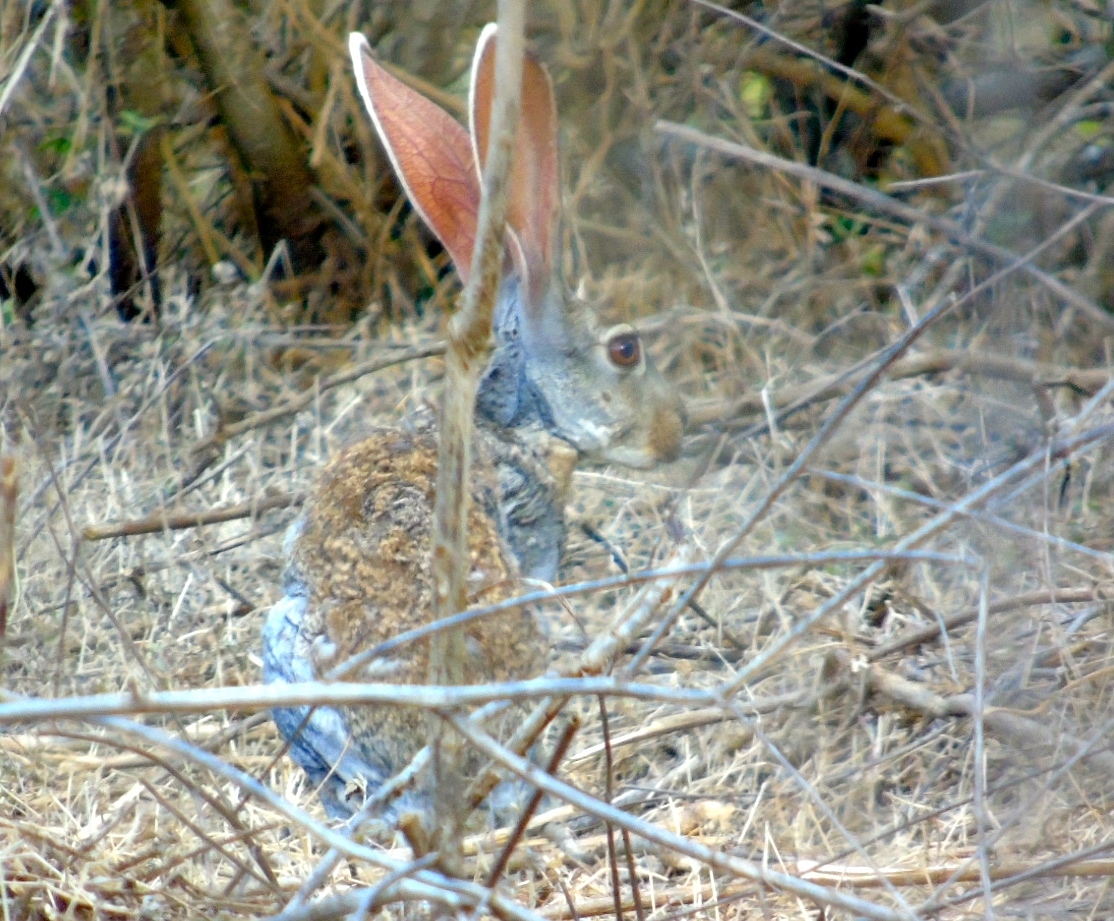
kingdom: Animalia
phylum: Chordata
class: Mammalia
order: Lagomorpha
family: Leporidae
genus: Lepus
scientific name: Lepus alleni
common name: Antelope jackrabbit
